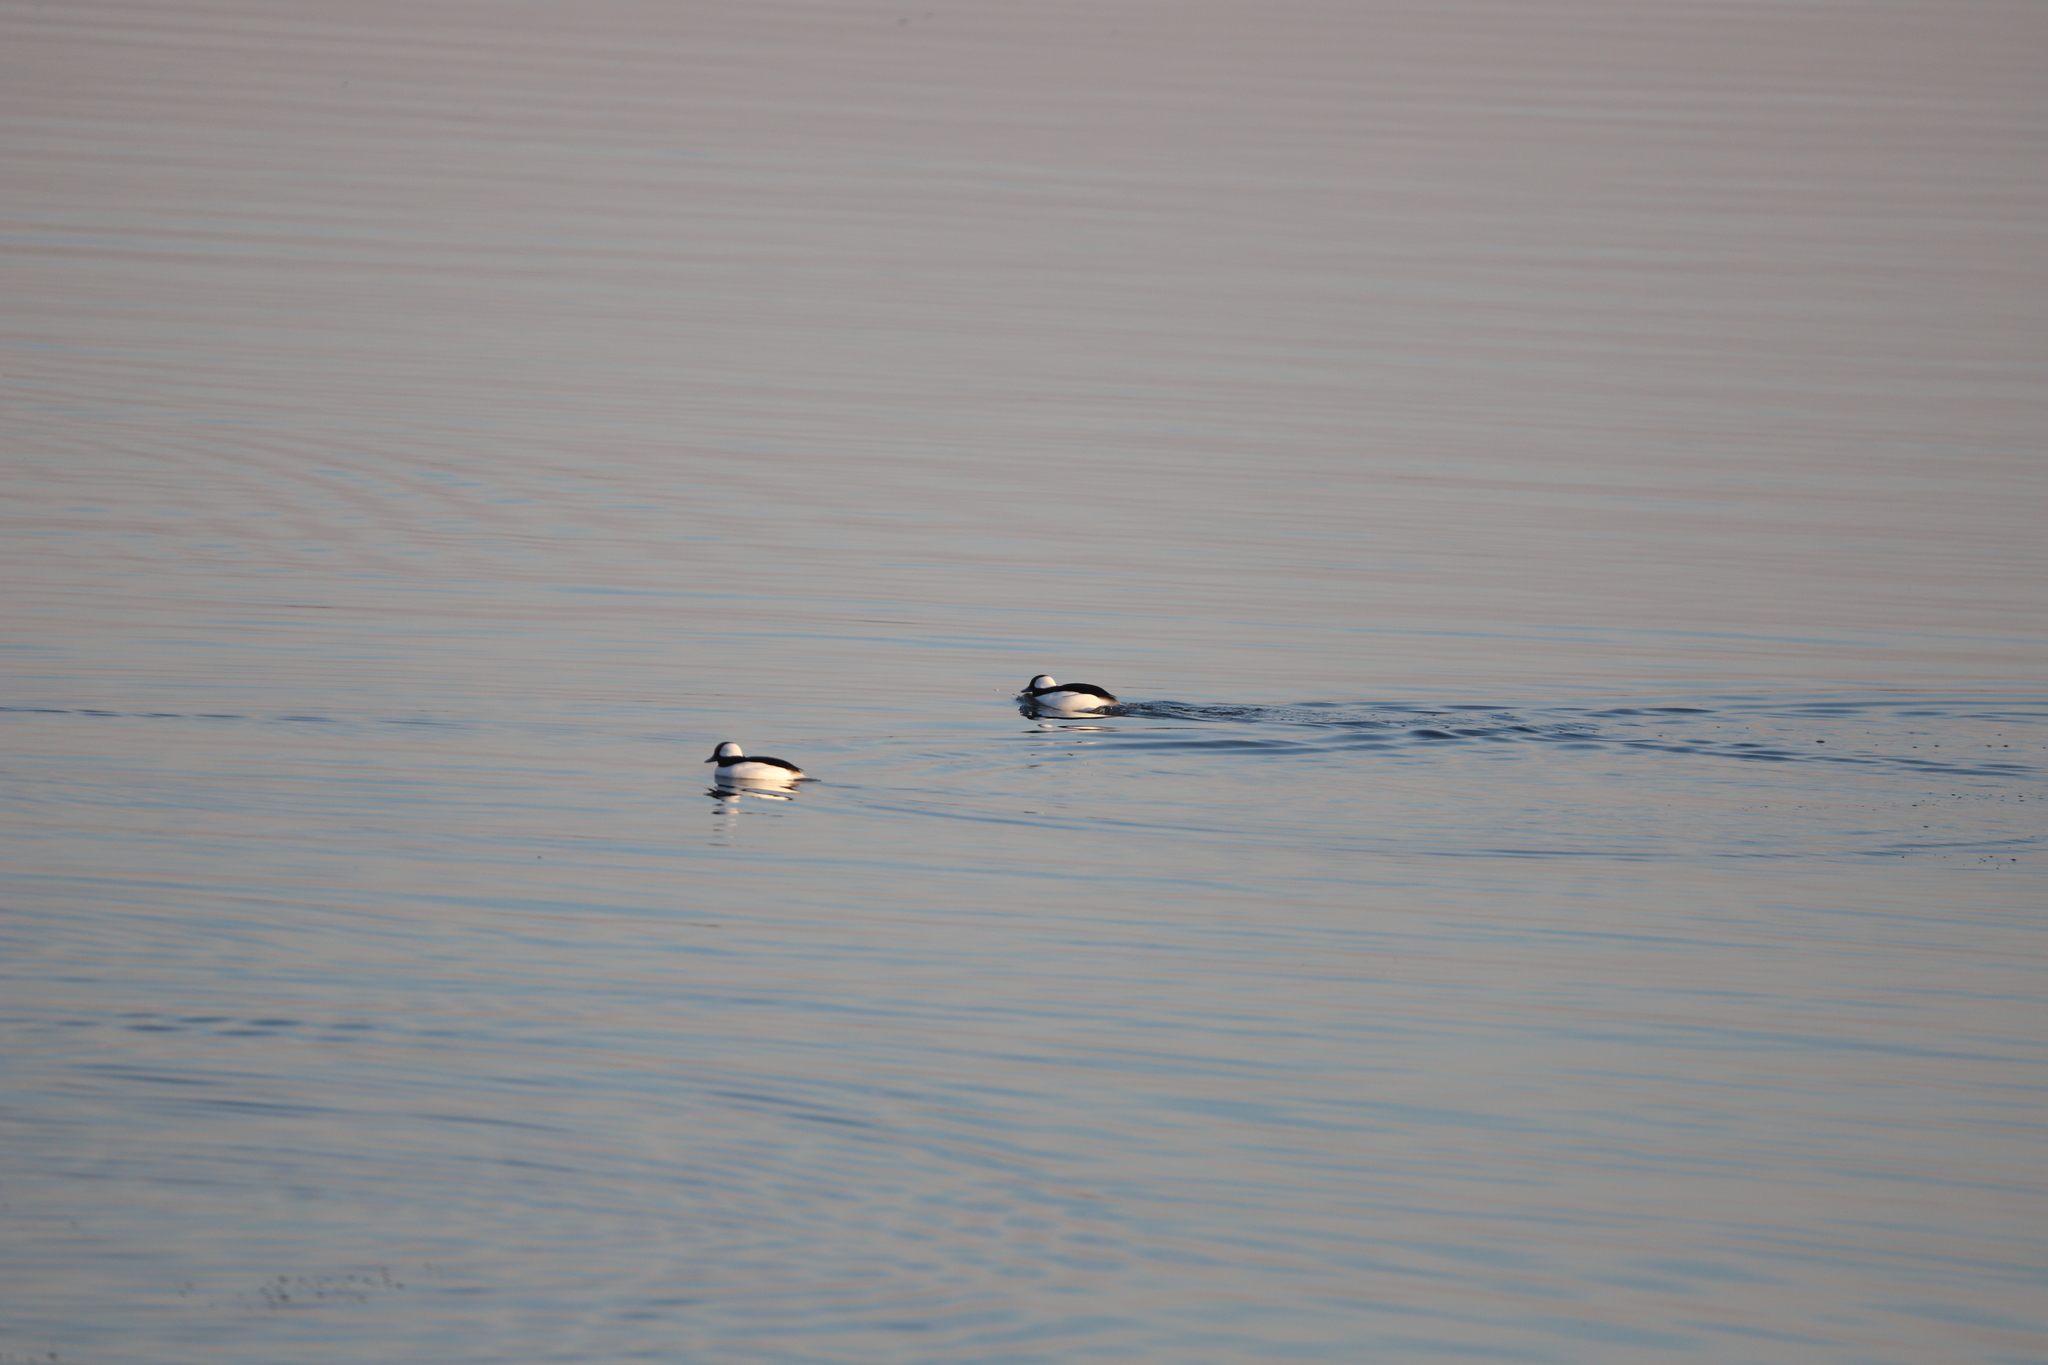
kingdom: Animalia
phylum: Chordata
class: Aves
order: Anseriformes
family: Anatidae
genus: Bucephala
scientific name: Bucephala albeola
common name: Bufflehead
